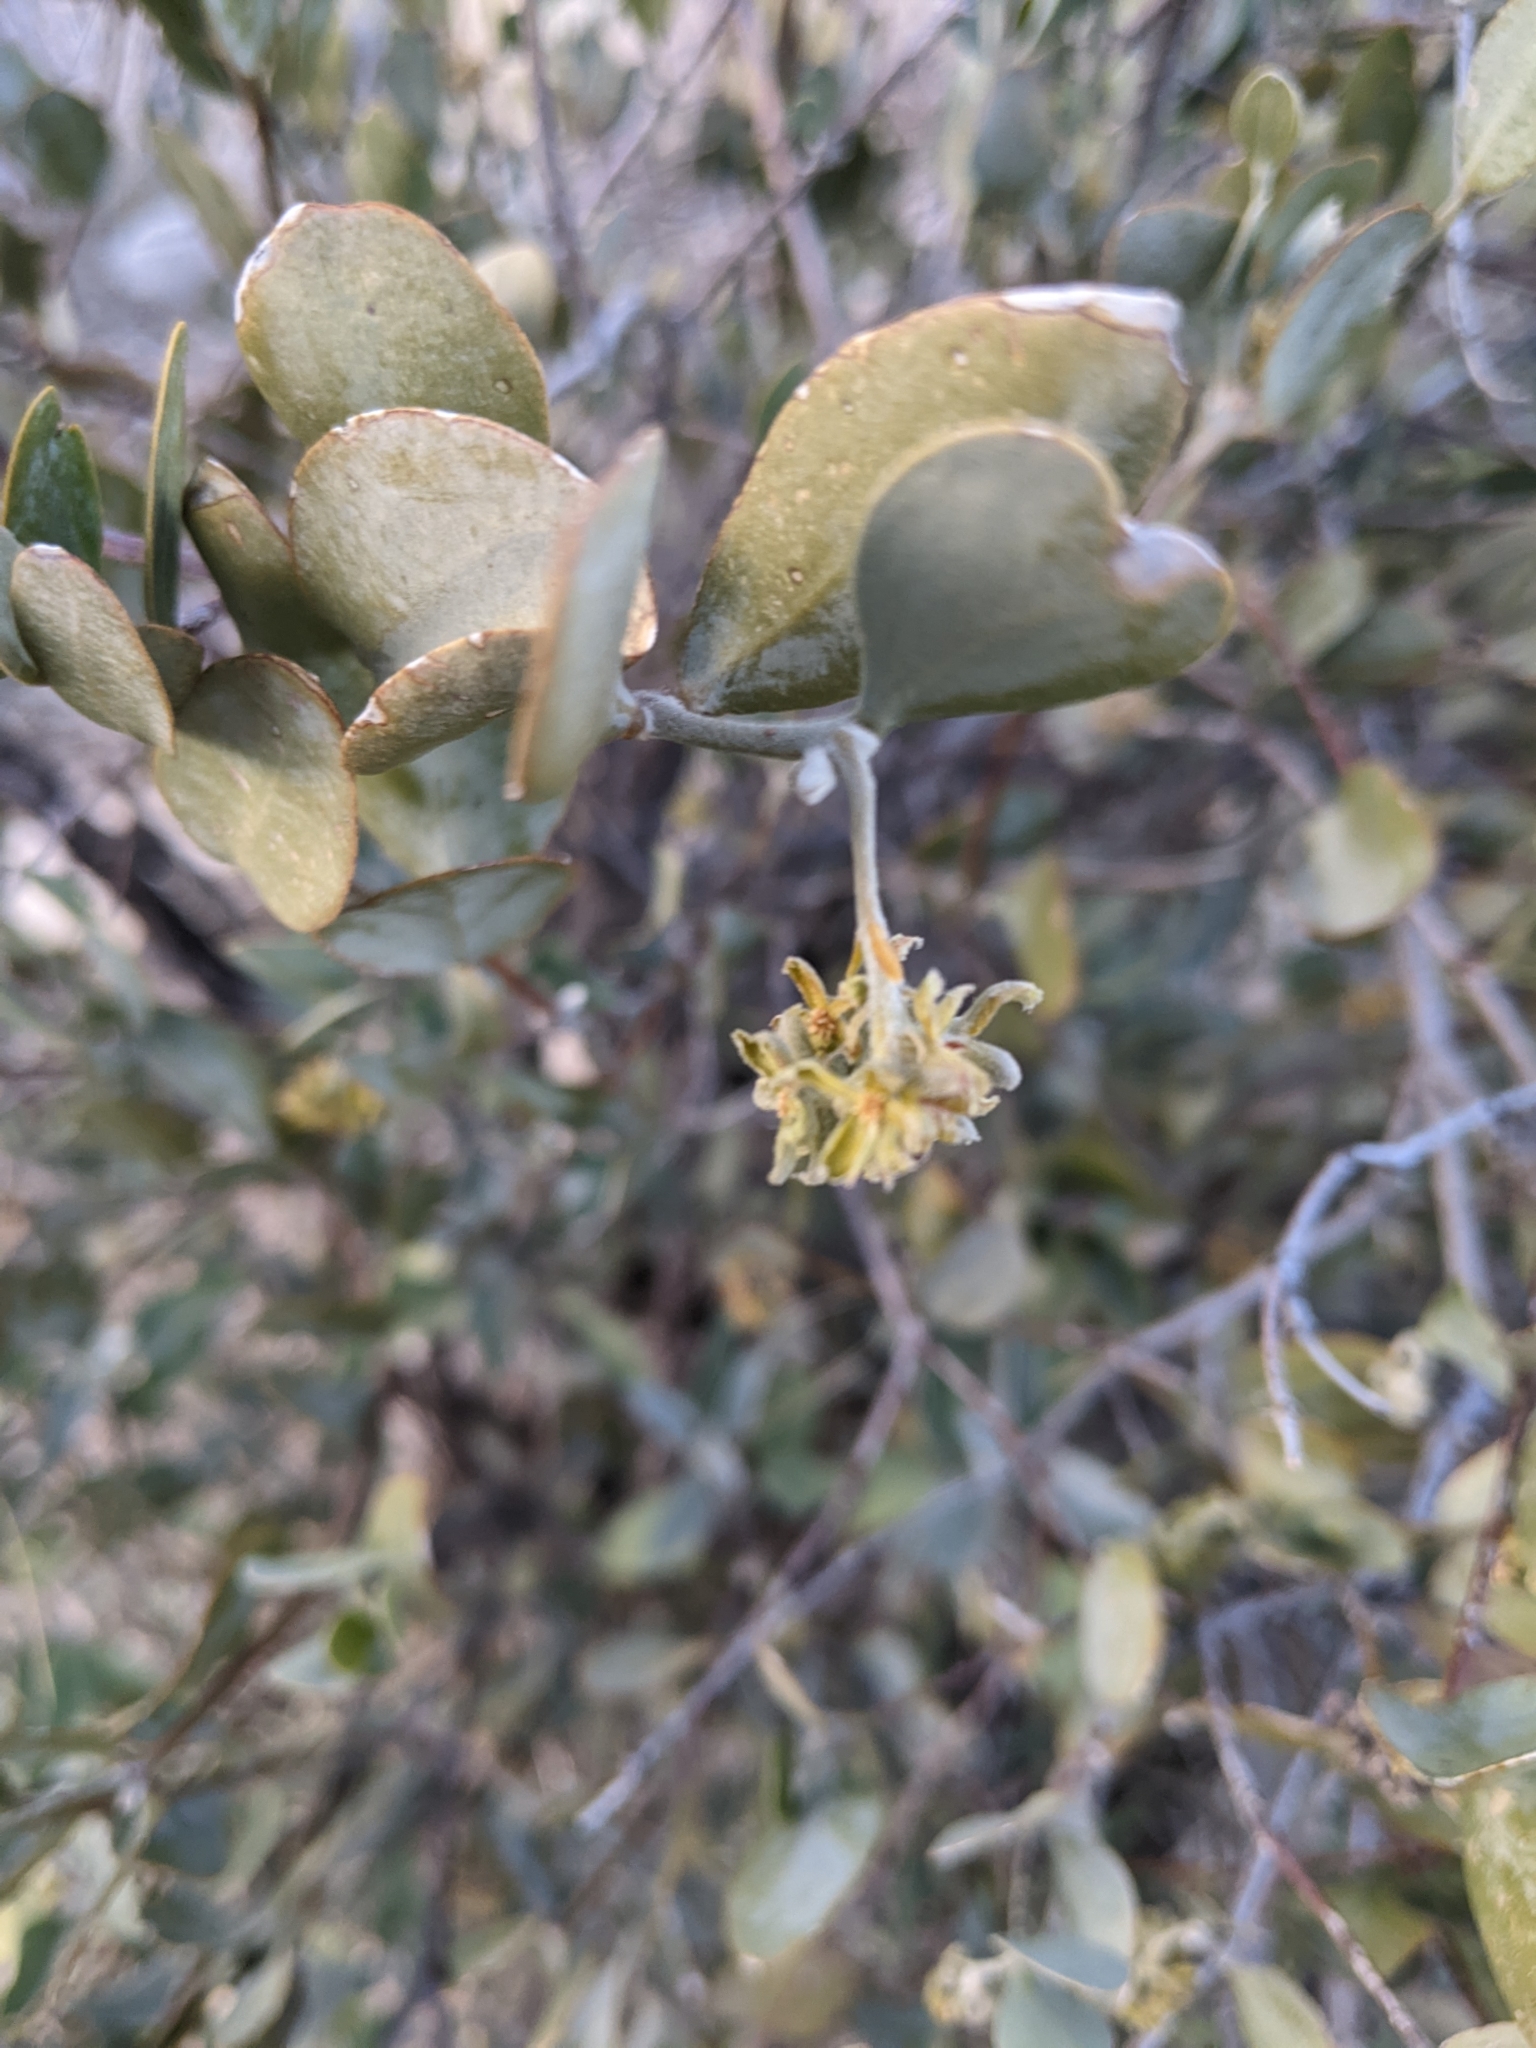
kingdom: Plantae
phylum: Tracheophyta
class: Magnoliopsida
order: Caryophyllales
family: Simmondsiaceae
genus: Simmondsia
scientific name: Simmondsia chinensis
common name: Jojoba
